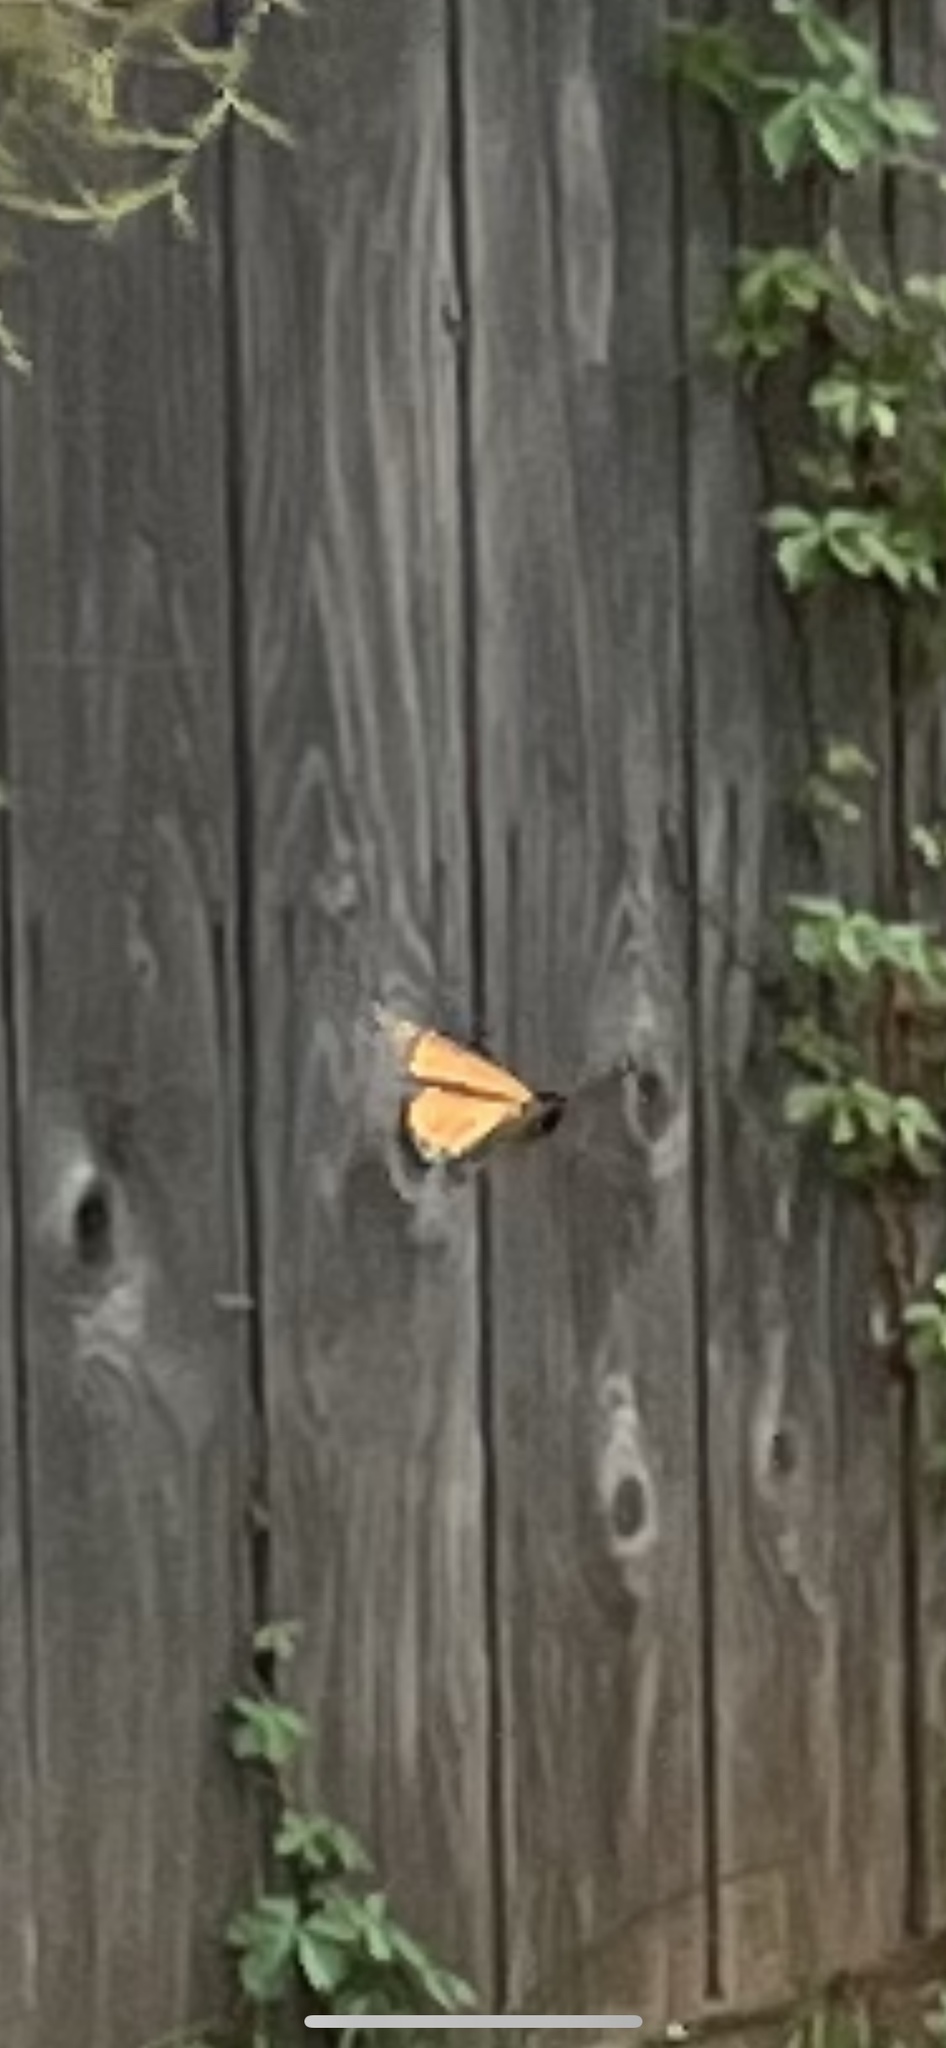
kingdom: Animalia
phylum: Arthropoda
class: Insecta
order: Lepidoptera
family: Nymphalidae
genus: Danaus
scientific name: Danaus plexippus
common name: Monarch
